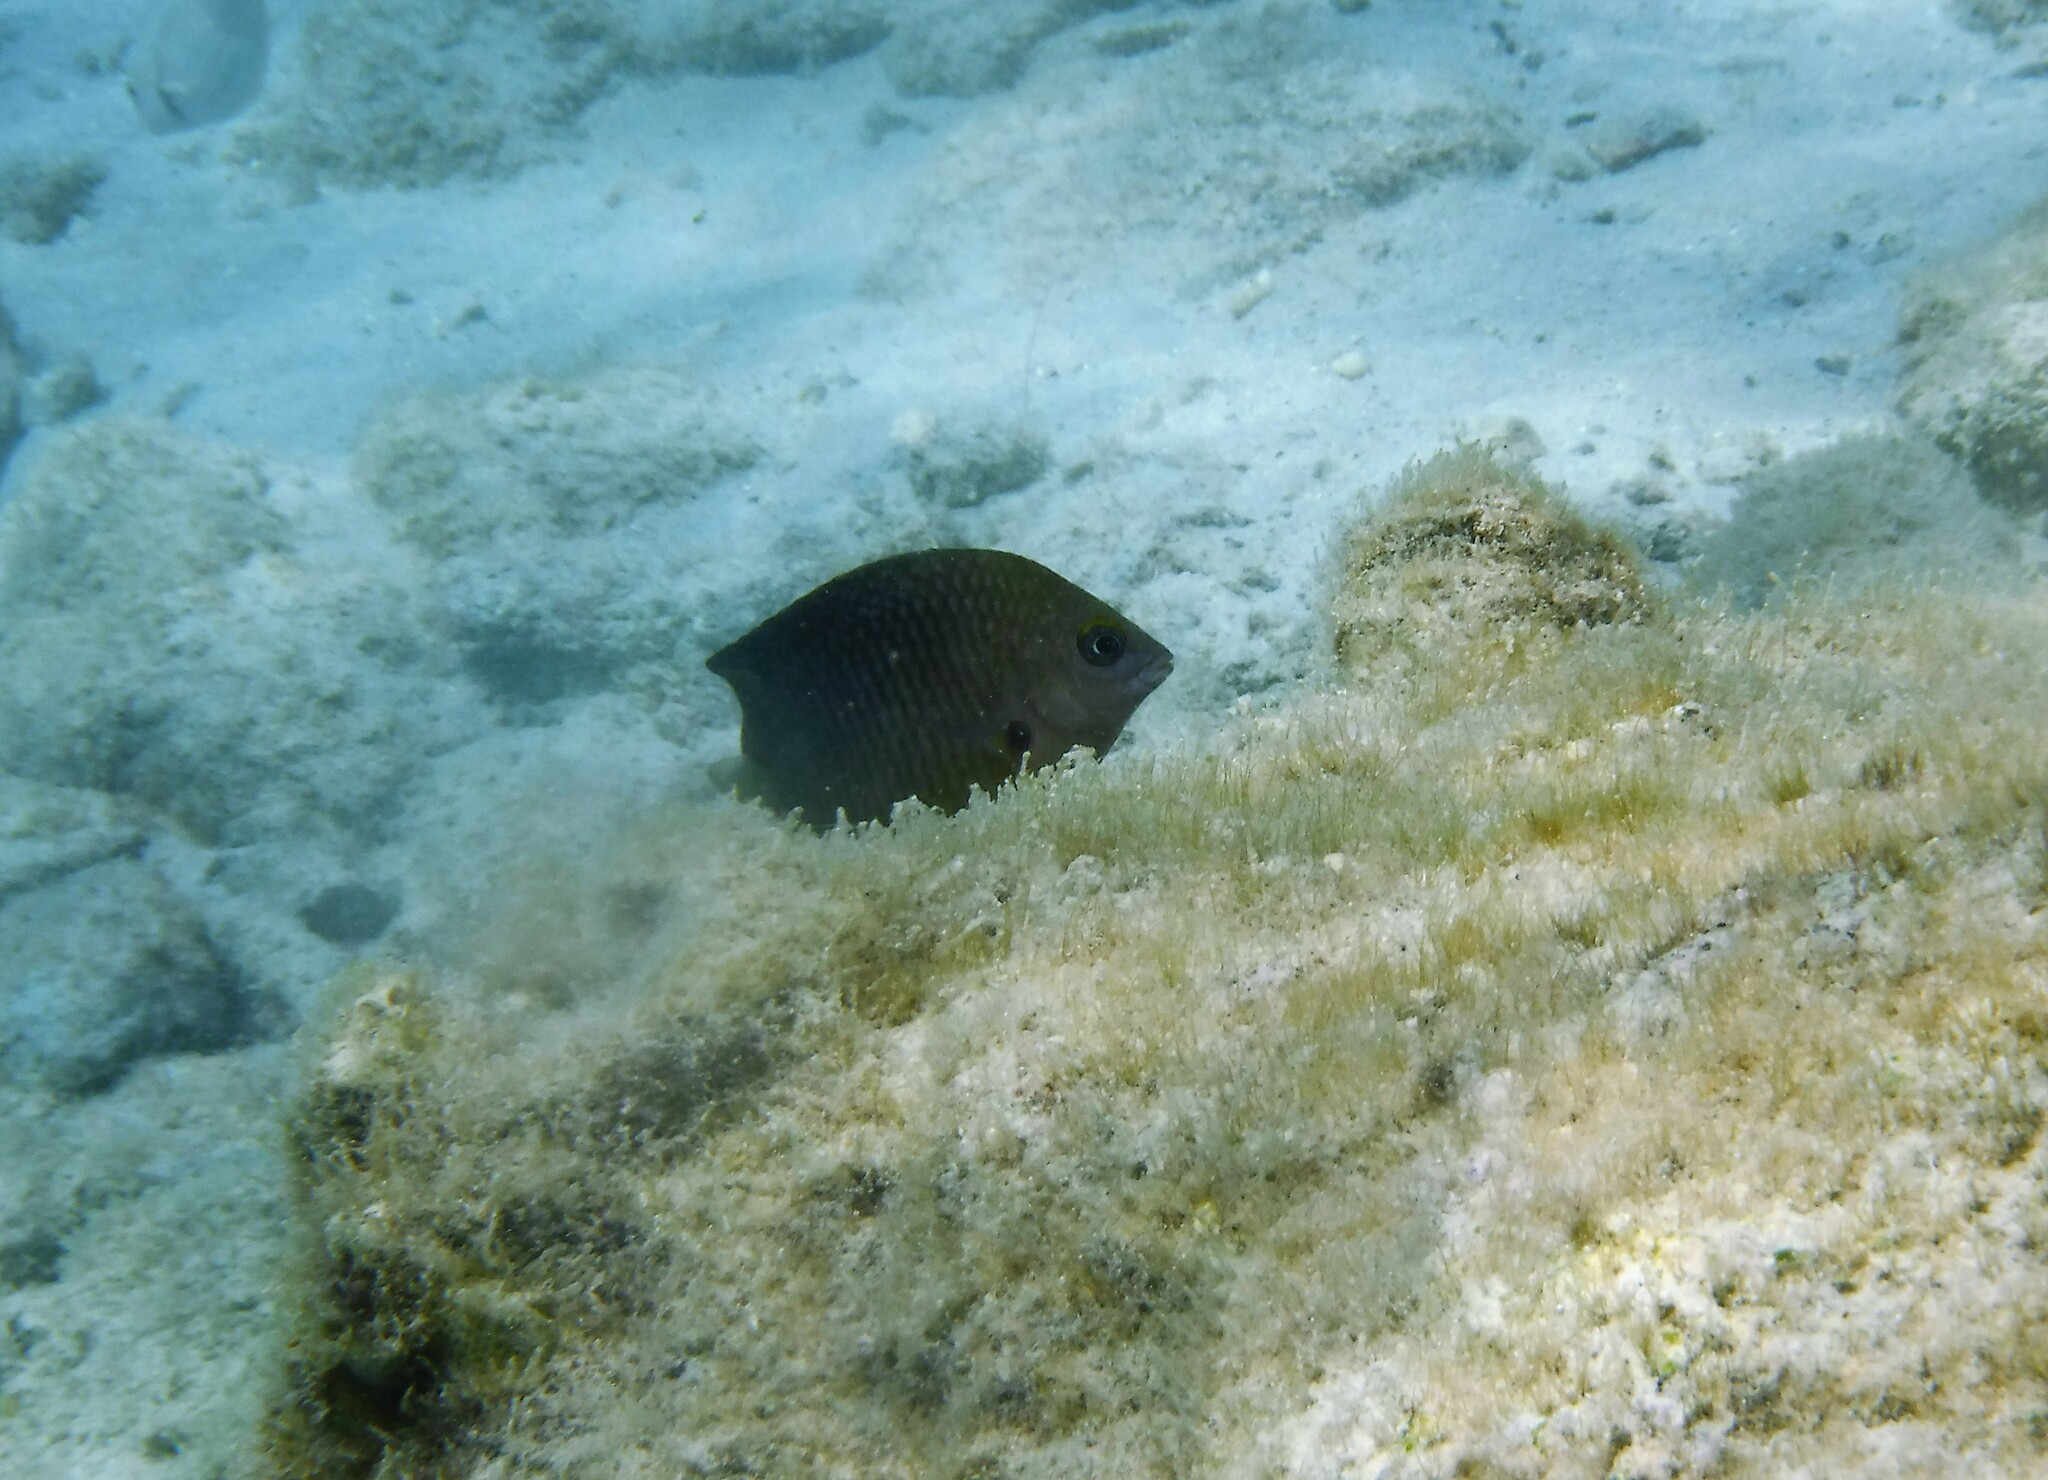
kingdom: Animalia
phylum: Chordata
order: Perciformes
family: Pomacentridae
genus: Stegastes
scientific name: Stegastes planifrons
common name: Threespot damselfish
